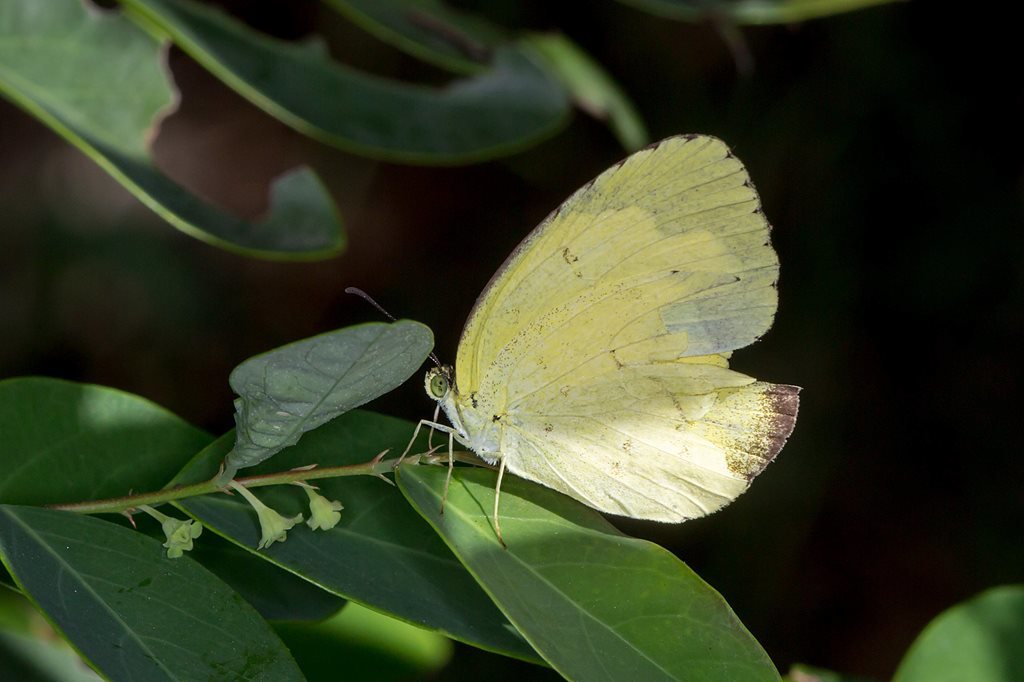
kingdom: Animalia
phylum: Arthropoda
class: Insecta
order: Lepidoptera
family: Pieridae
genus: Eurema
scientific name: Eurema hecabe
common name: Pale grass yellow
